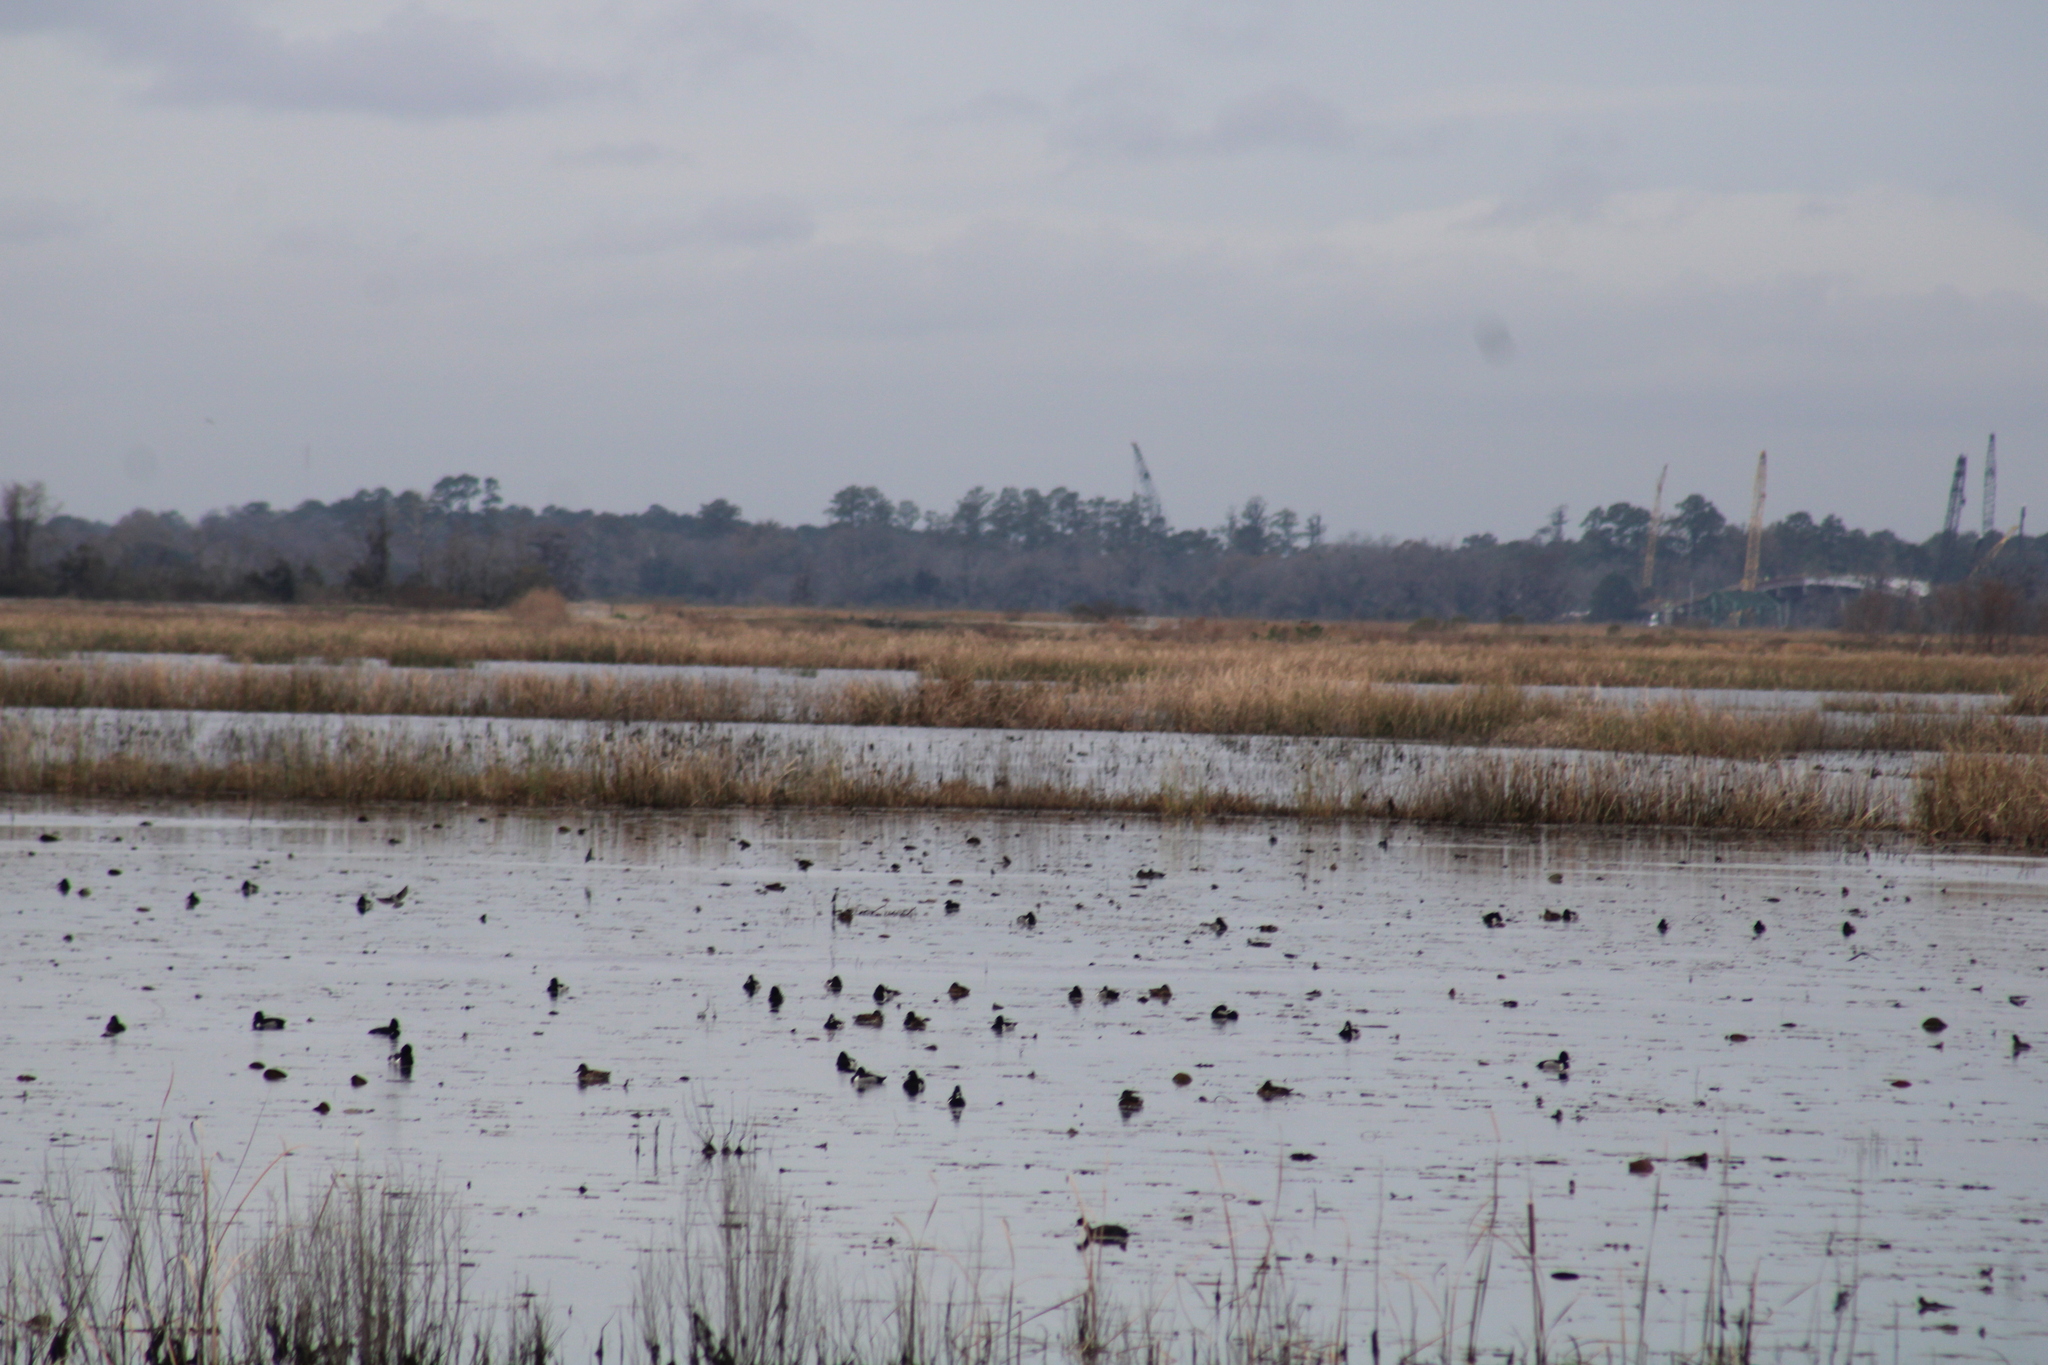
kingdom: Animalia
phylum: Chordata
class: Aves
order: Anseriformes
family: Anatidae
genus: Aythya
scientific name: Aythya collaris
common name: Ring-necked duck
